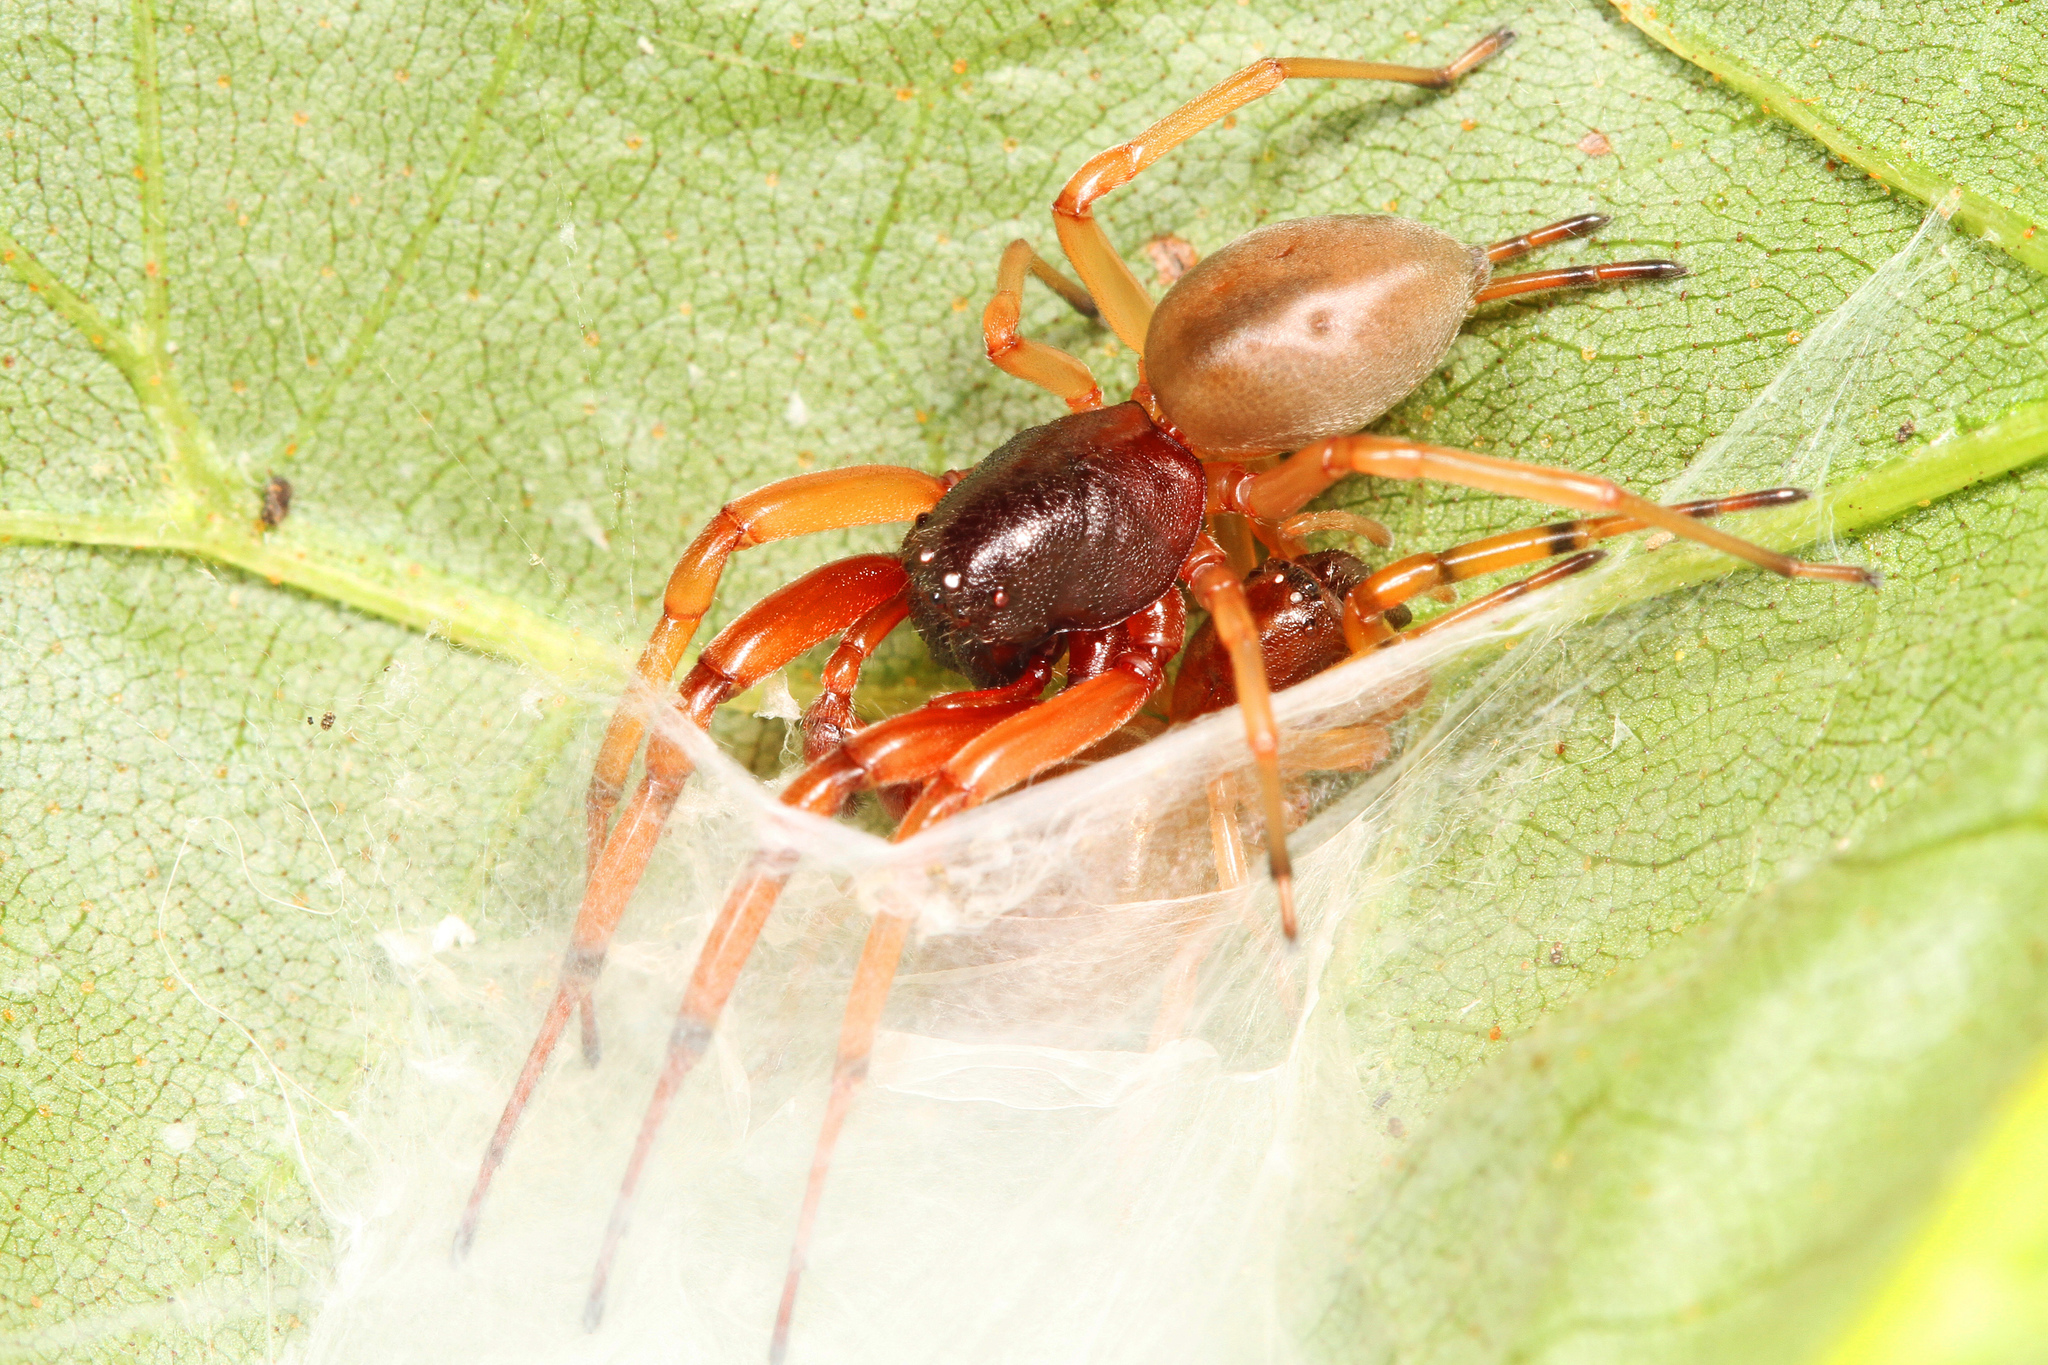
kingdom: Animalia
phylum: Arthropoda
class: Arachnida
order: Araneae
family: Trachelidae
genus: Trachelas
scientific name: Trachelas tranquillus
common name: Broad-faced sac spider
